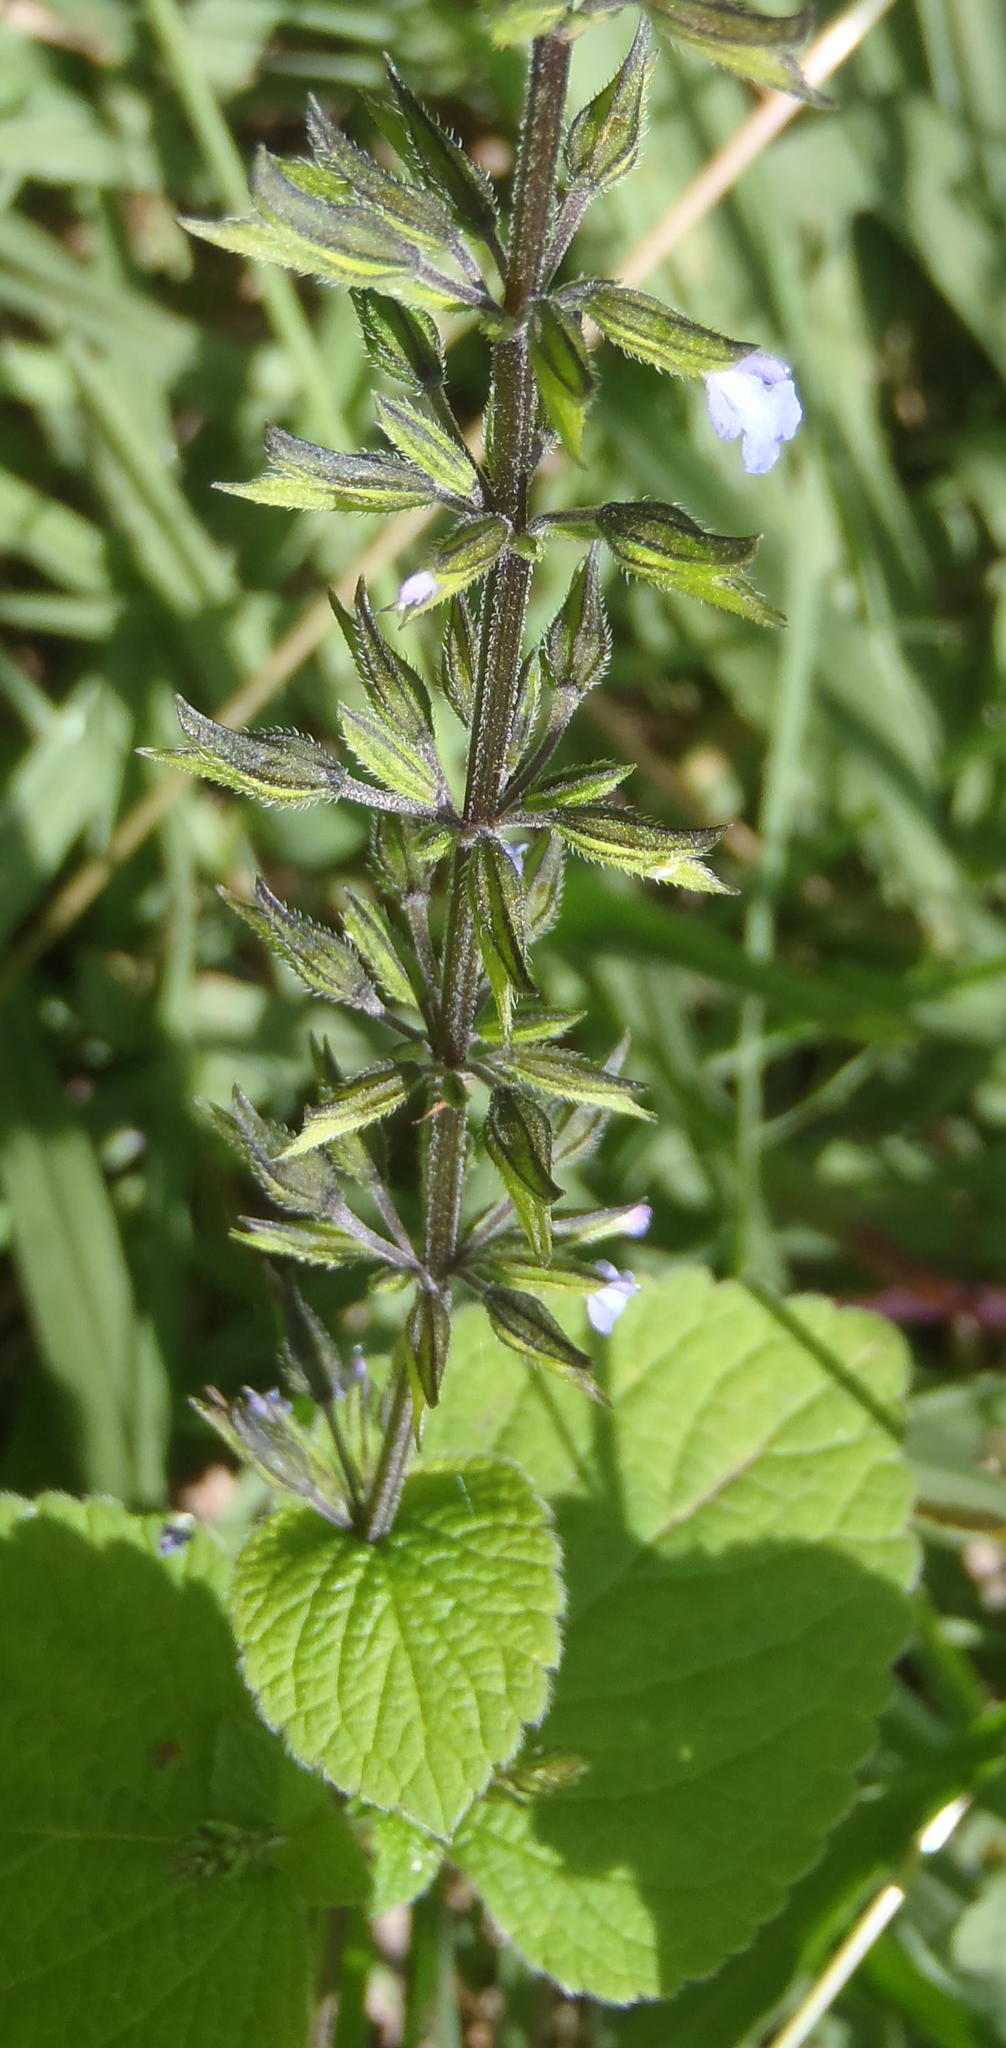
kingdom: Plantae
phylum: Tracheophyta
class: Magnoliopsida
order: Lamiales
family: Lamiaceae
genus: Salvia
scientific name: Salvia tiliifolia
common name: Lindenleaf sage
